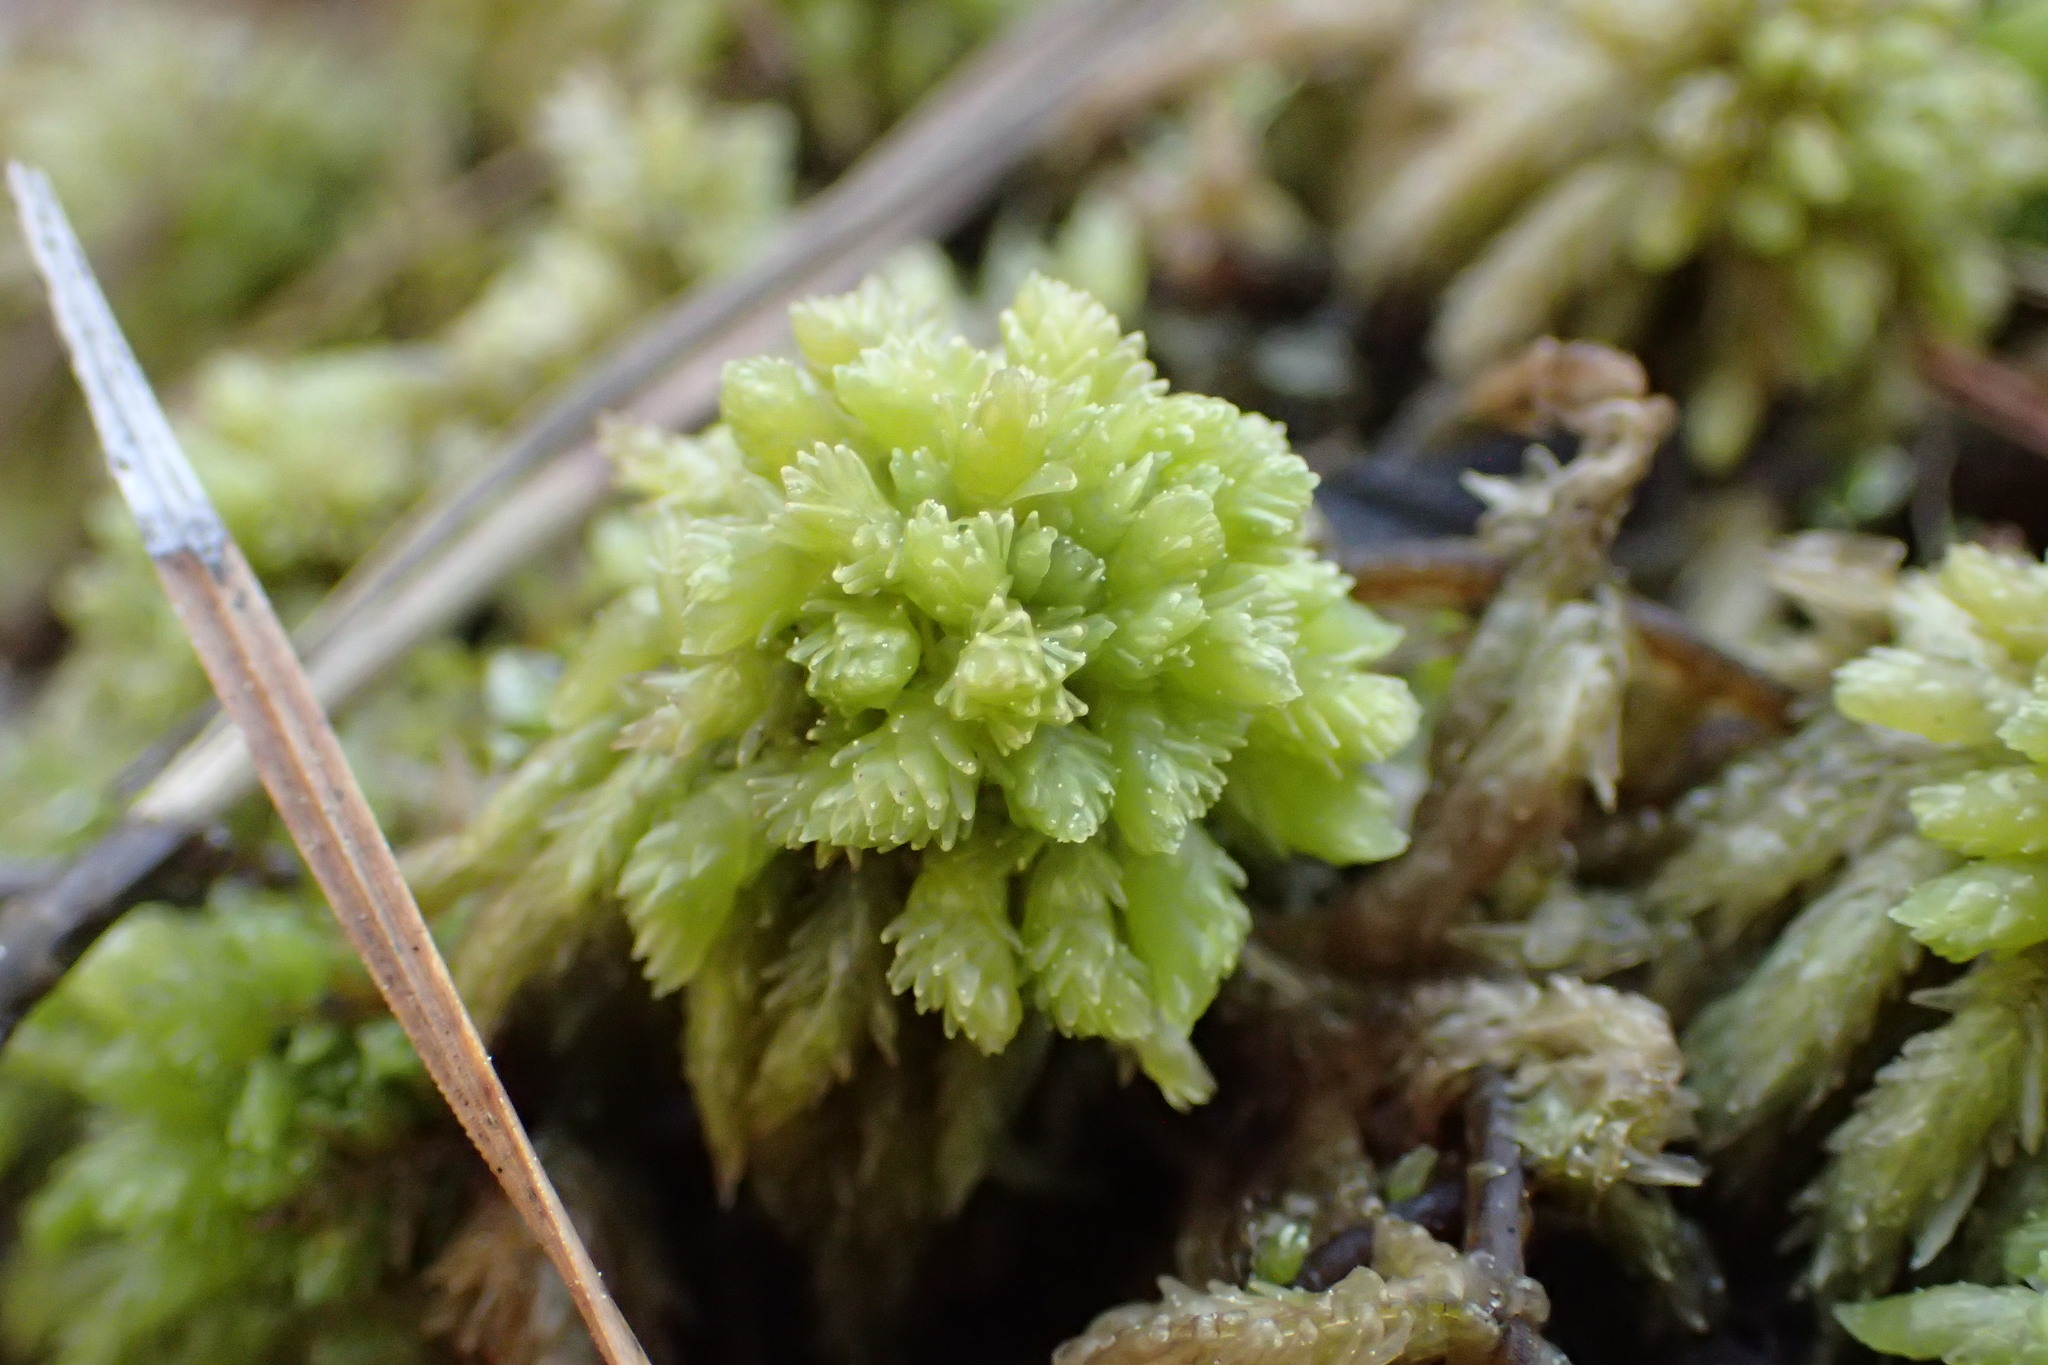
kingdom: Plantae
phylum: Bryophyta
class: Sphagnopsida
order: Sphagnales
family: Sphagnaceae
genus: Sphagnum
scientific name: Sphagnum
